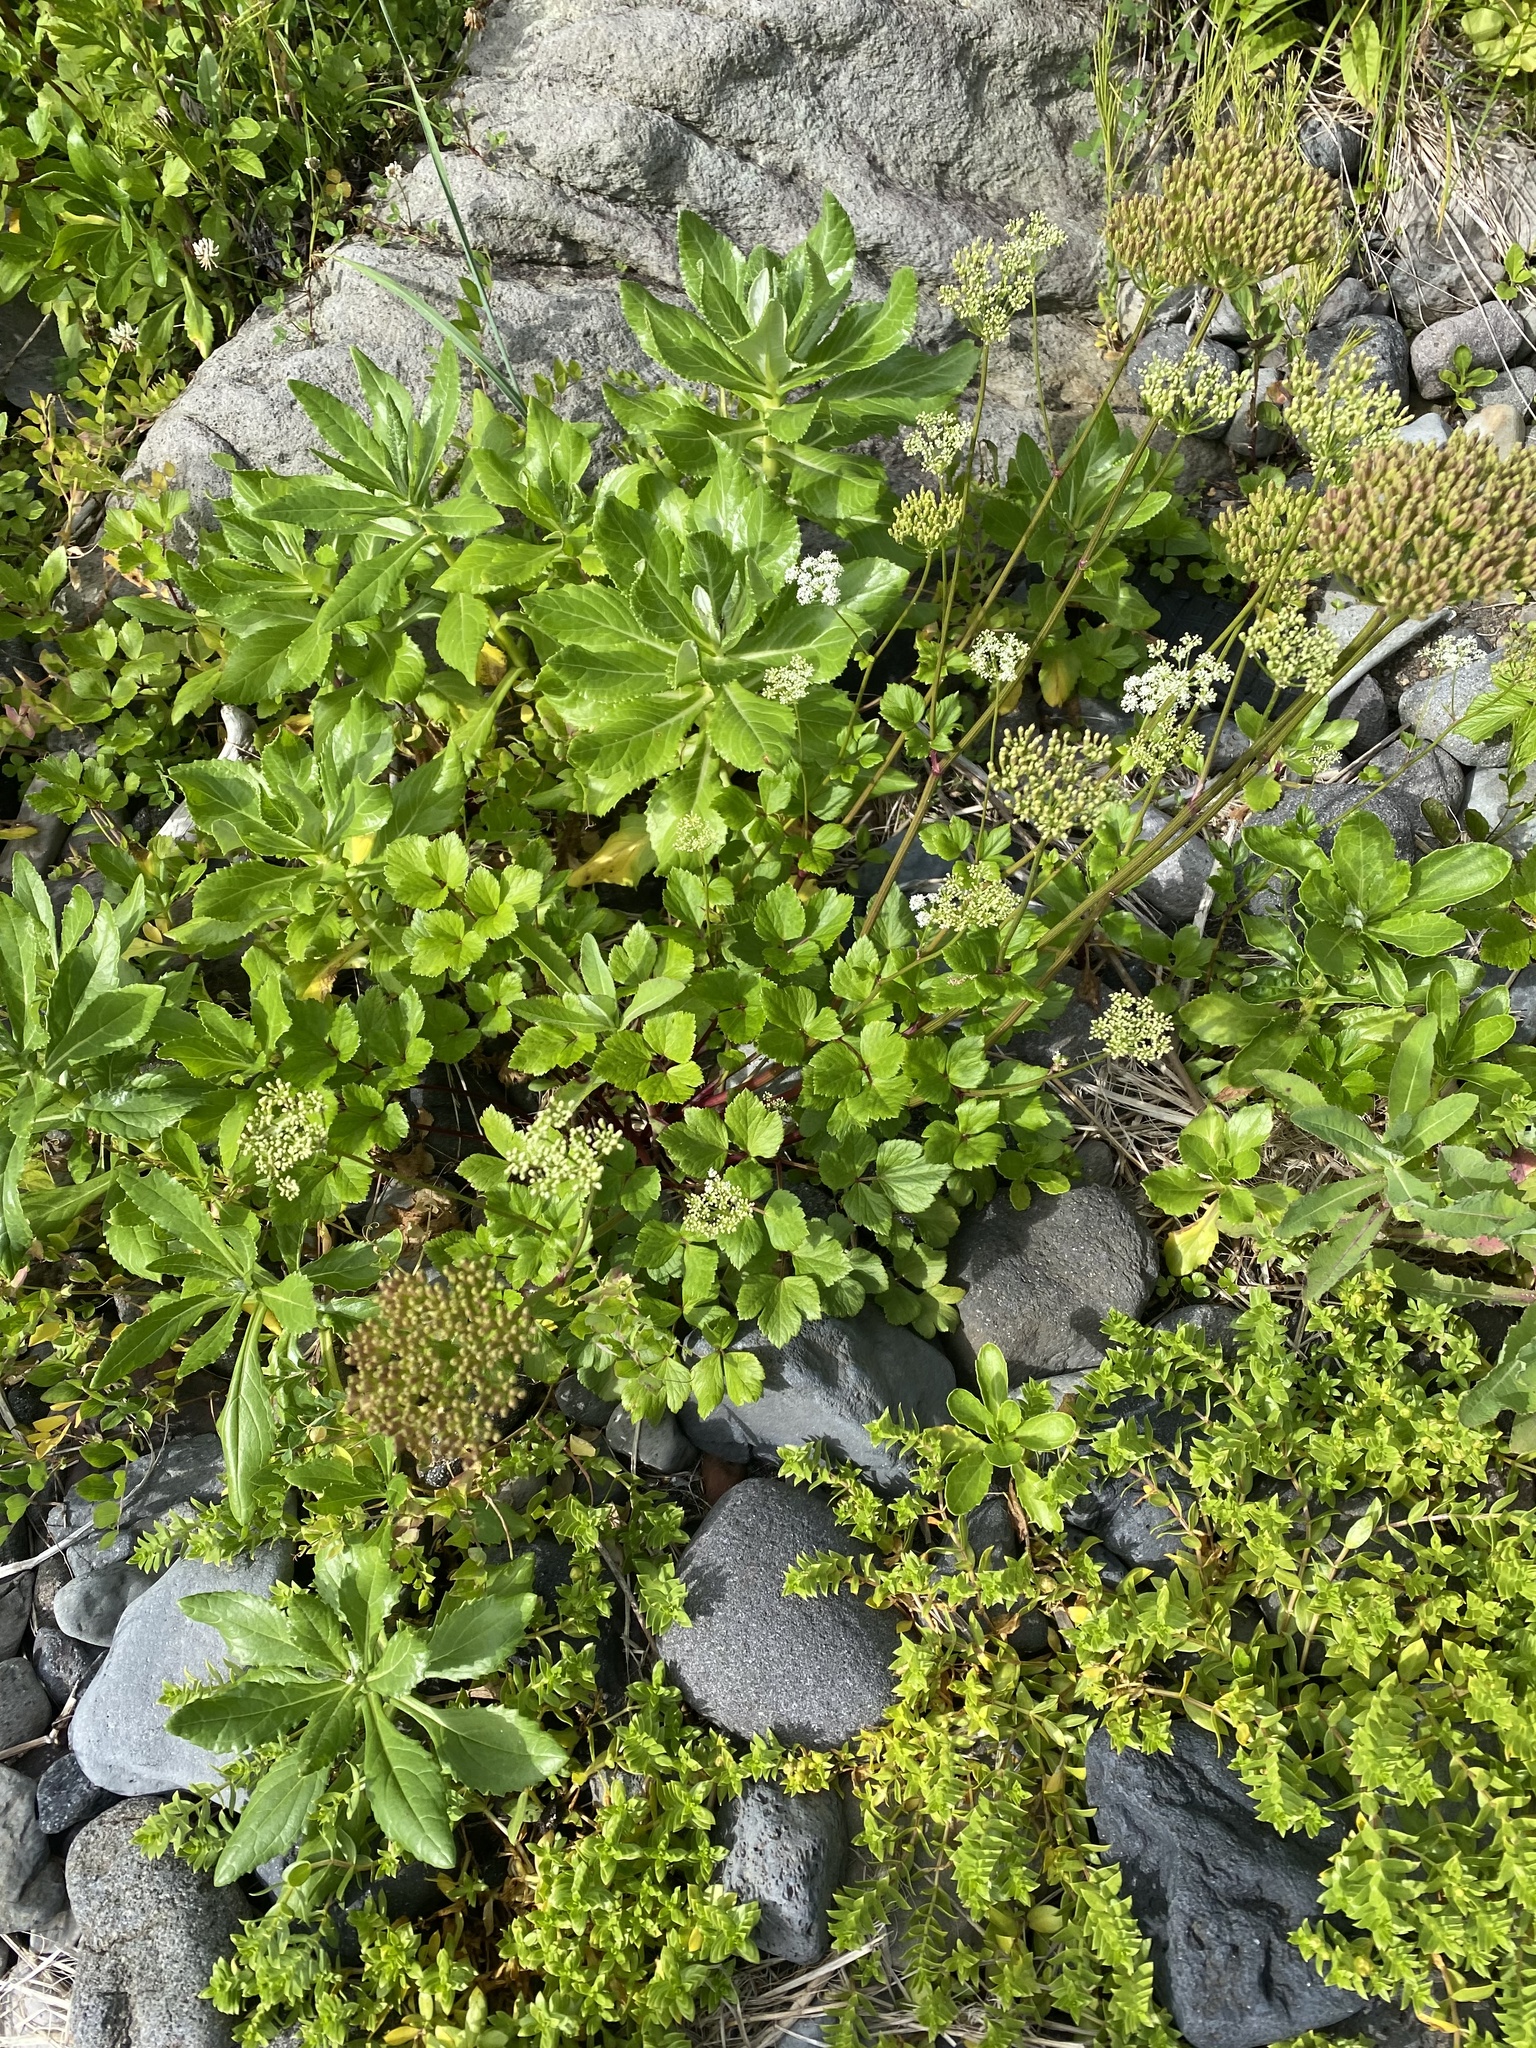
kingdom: Plantae
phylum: Tracheophyta
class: Magnoliopsida
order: Apiales
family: Apiaceae
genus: Ligusticum
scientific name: Ligusticum scothicum
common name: Beach lovage
